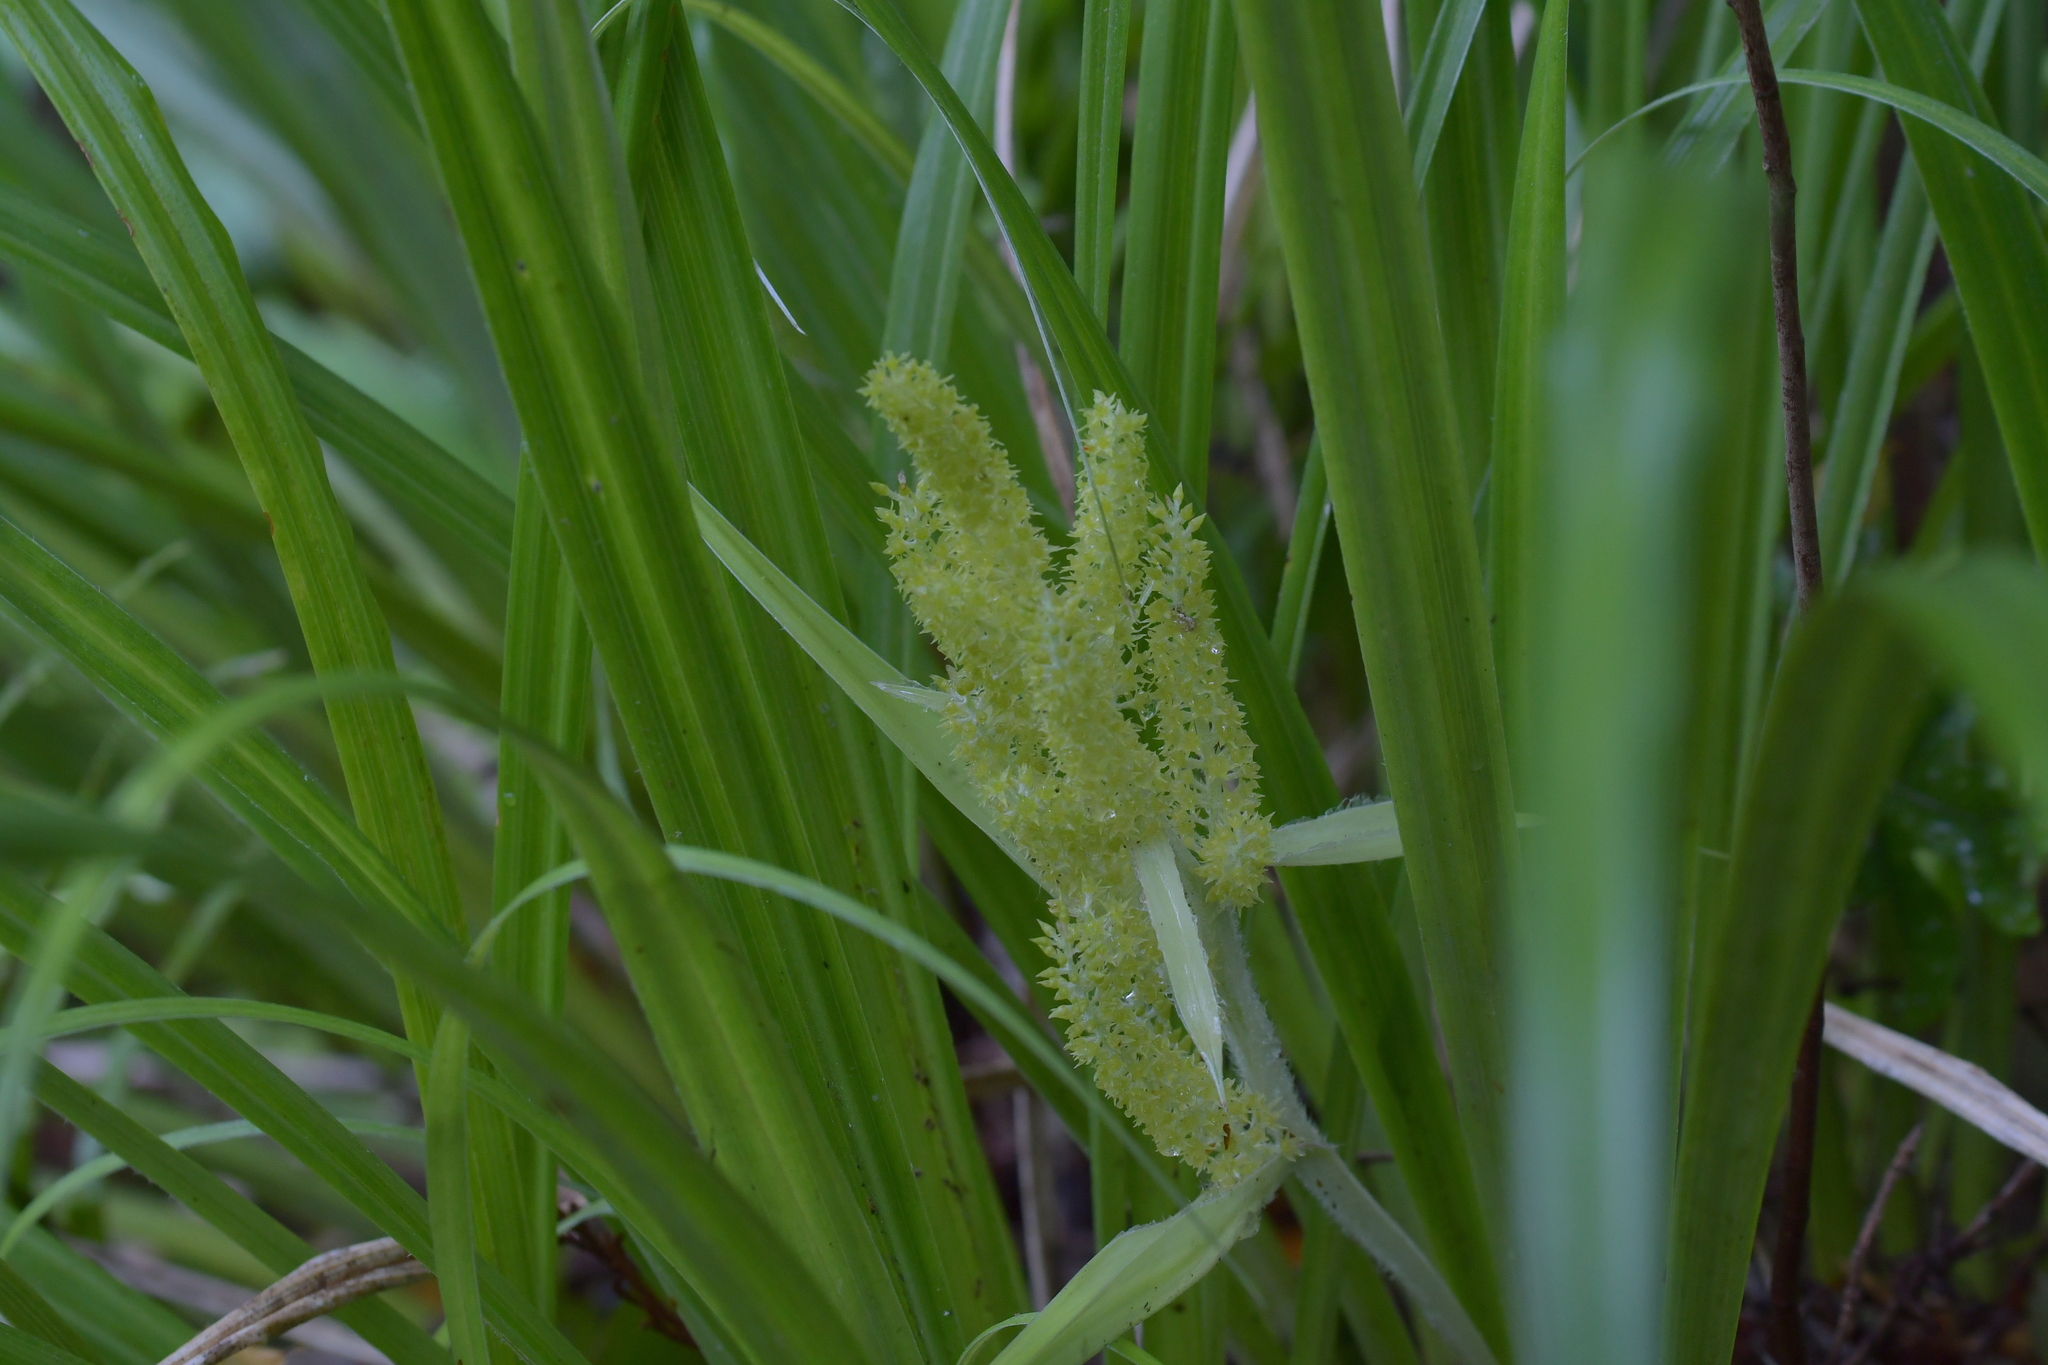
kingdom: Plantae
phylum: Tracheophyta
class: Liliopsida
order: Asparagales
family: Asteliaceae
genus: Astelia
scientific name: Astelia solandri
